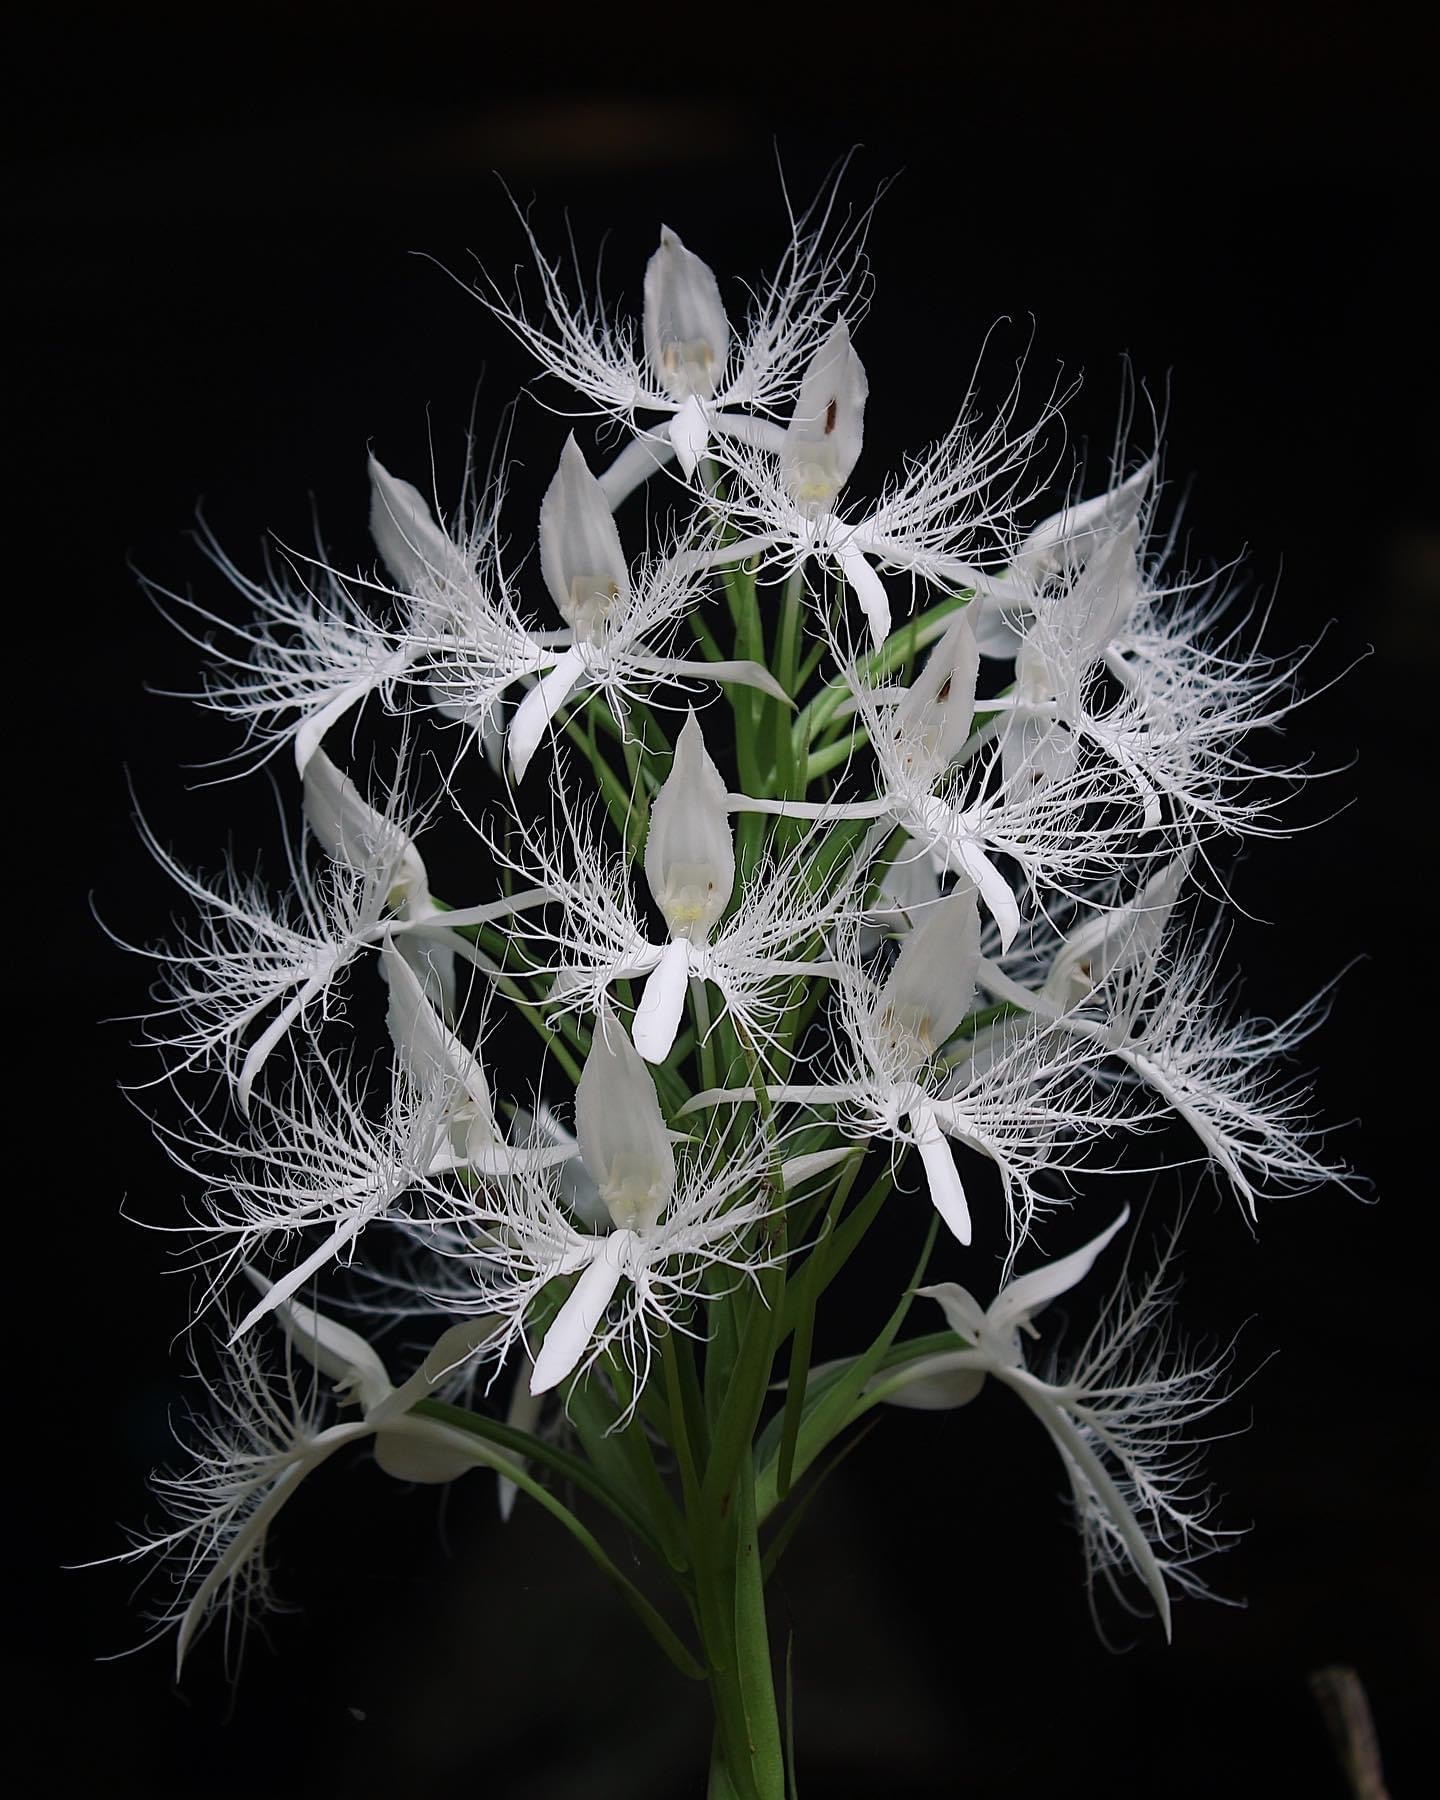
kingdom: Plantae
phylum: Tracheophyta
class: Liliopsida
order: Asparagales
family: Orchidaceae
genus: Habenaria
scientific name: Habenaria trichosantha
